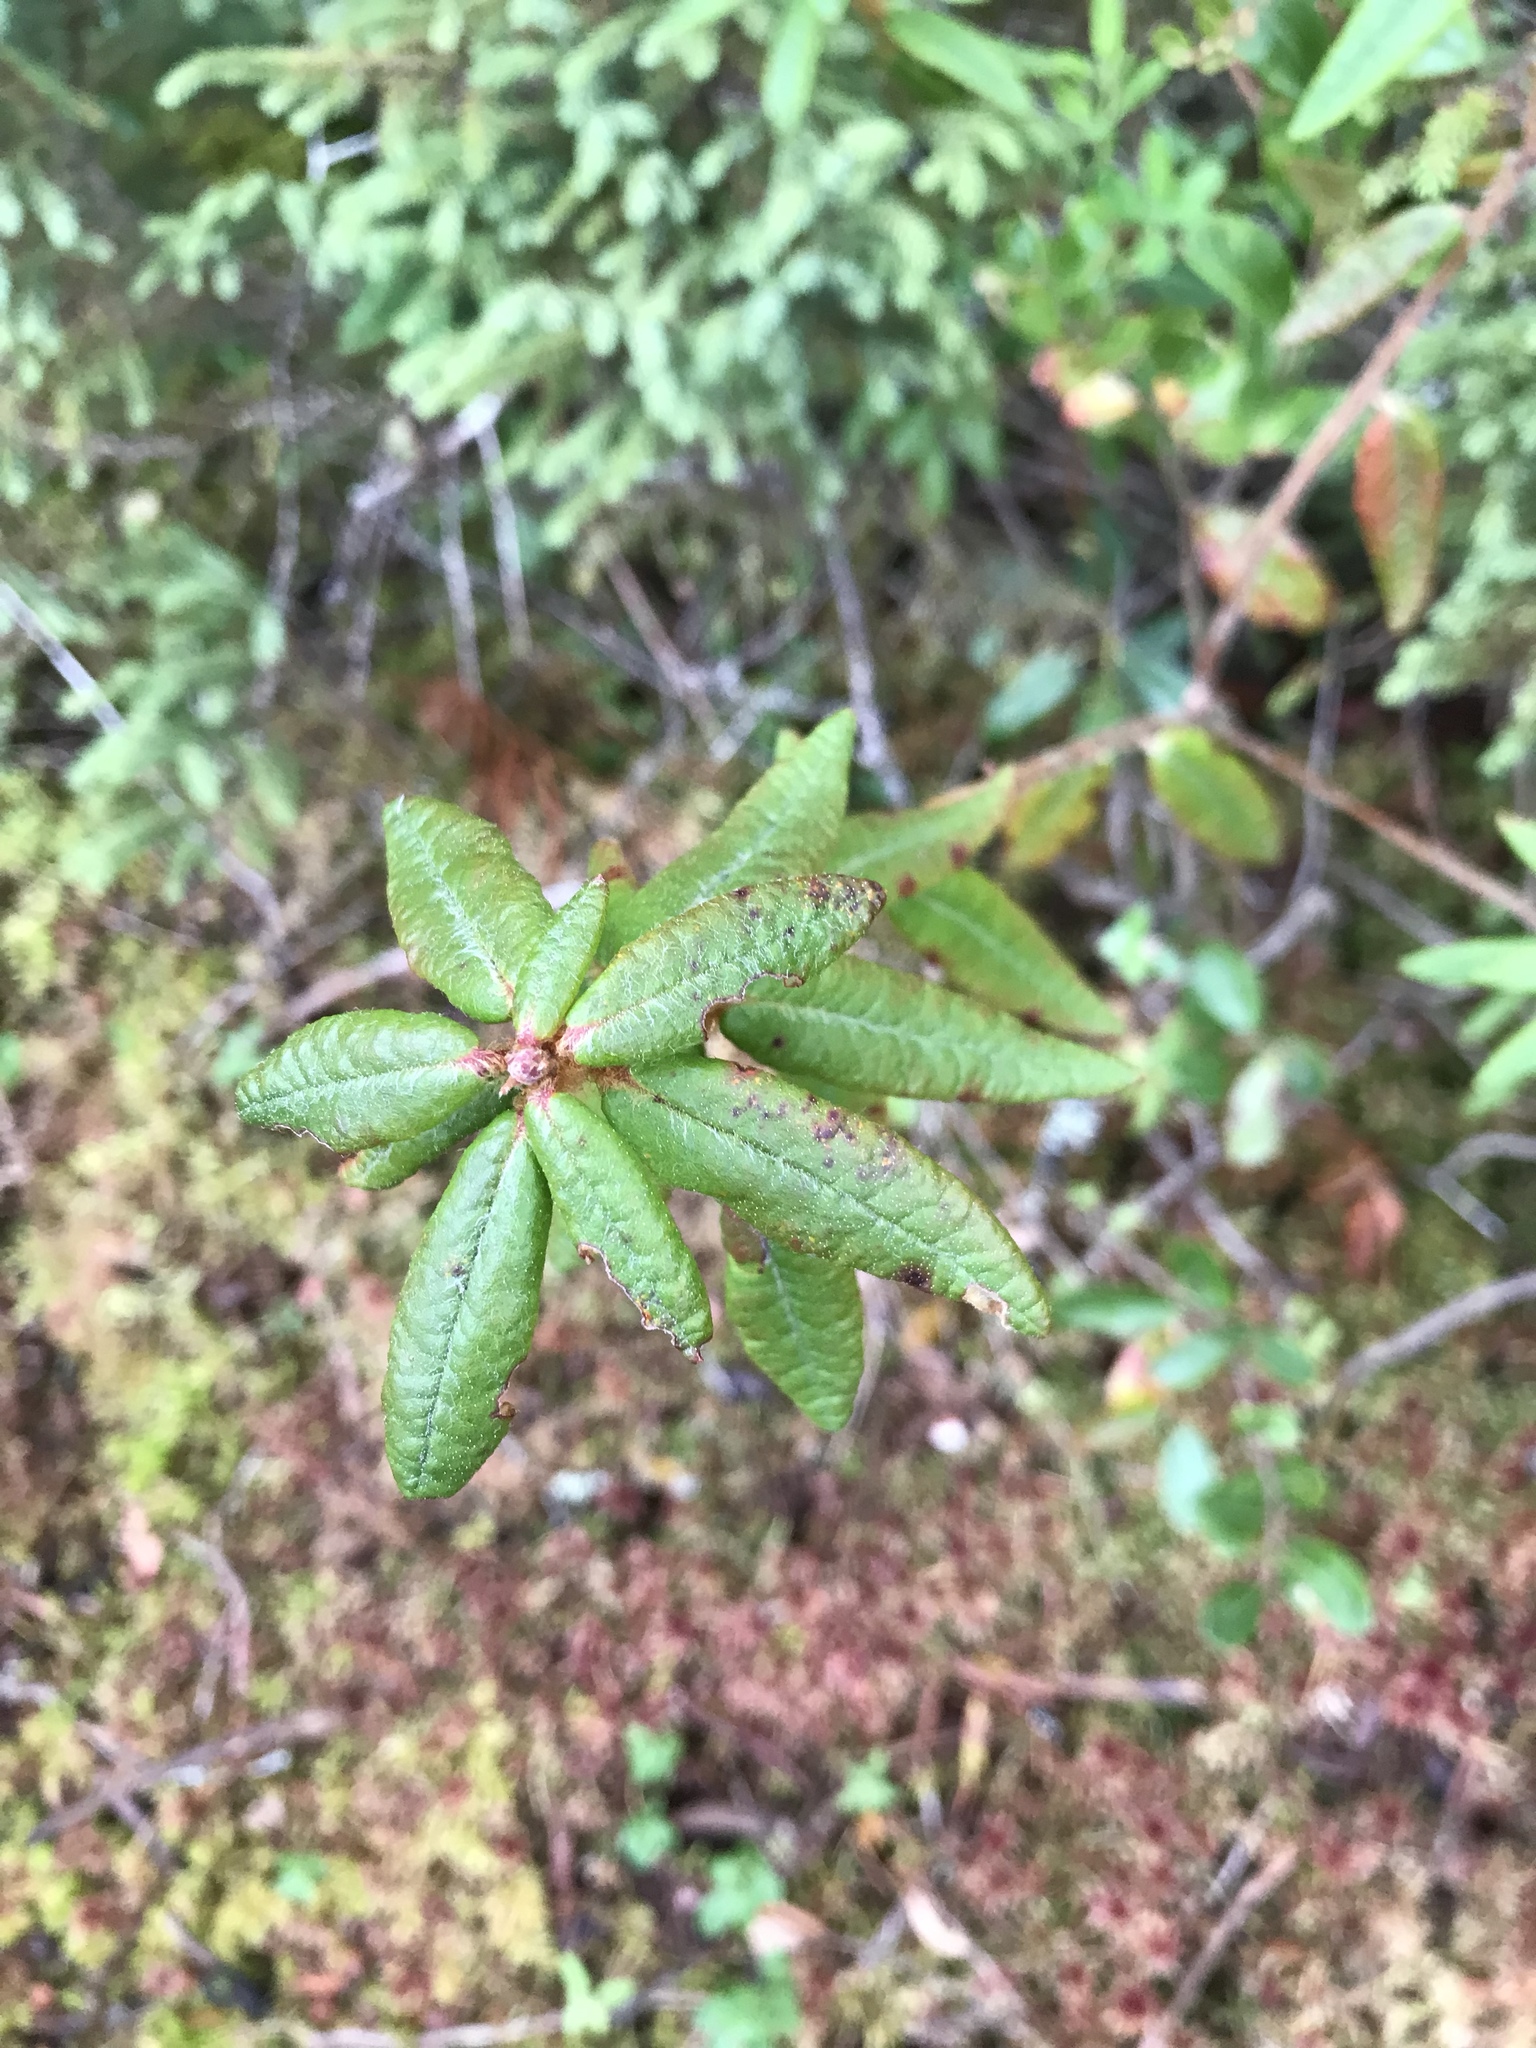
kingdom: Plantae
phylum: Tracheophyta
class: Magnoliopsida
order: Ericales
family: Ericaceae
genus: Rhododendron
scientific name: Rhododendron groenlandicum
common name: Bog labrador tea
